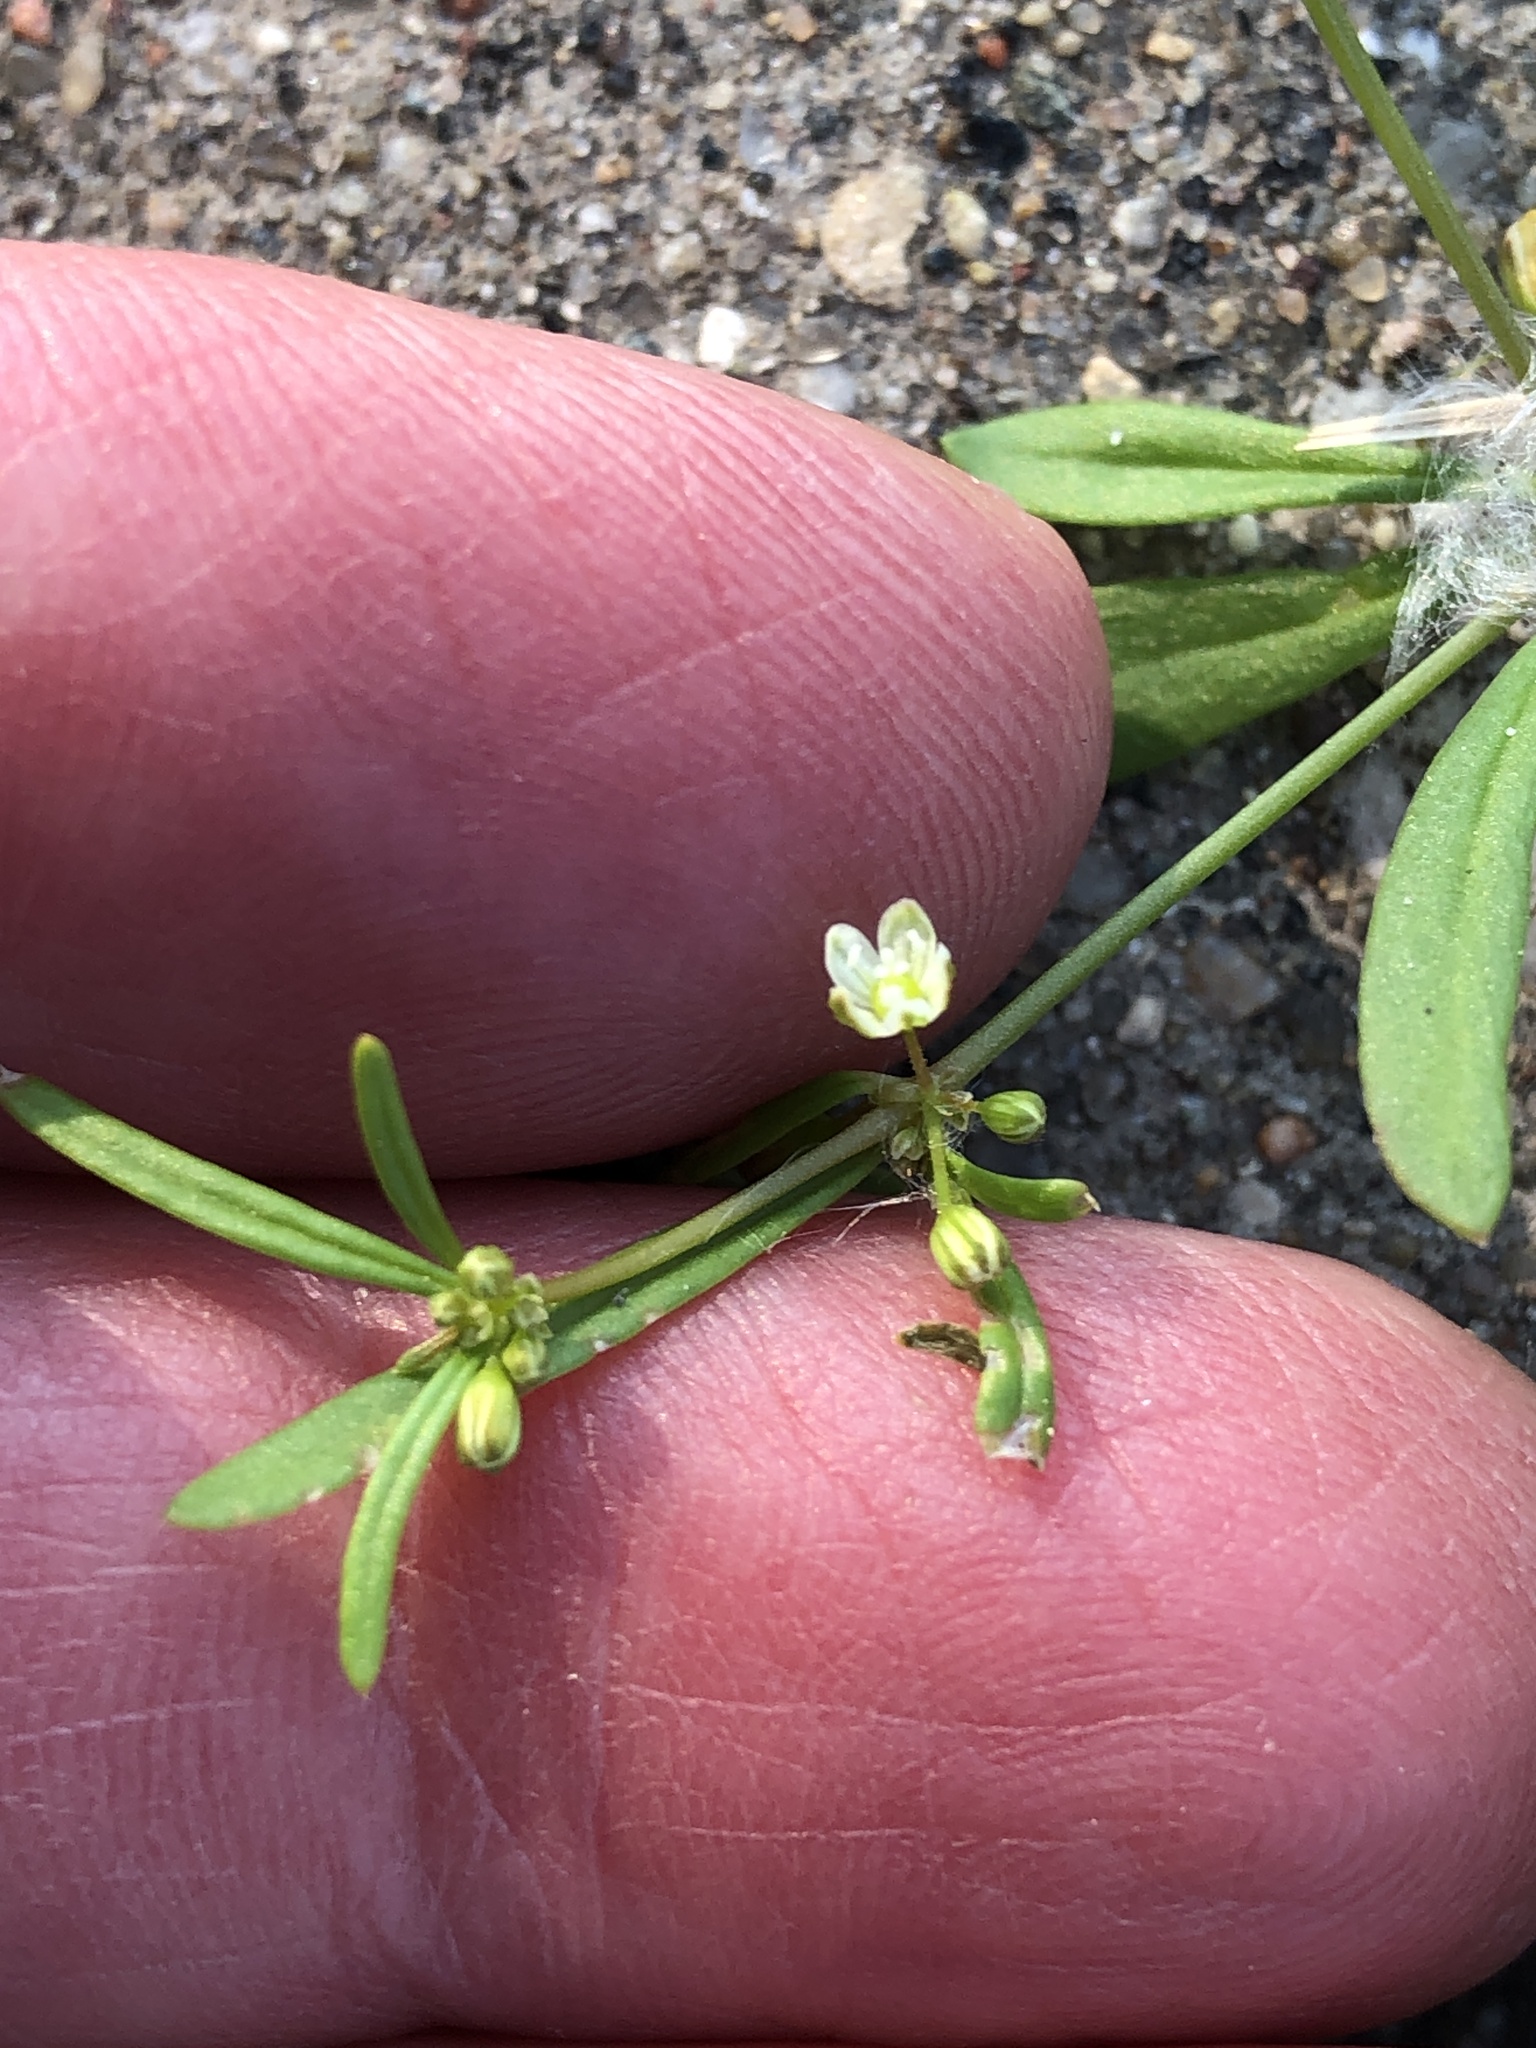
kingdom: Plantae
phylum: Tracheophyta
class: Magnoliopsida
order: Caryophyllales
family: Molluginaceae
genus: Mollugo
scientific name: Mollugo verticillata
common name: Green carpetweed
